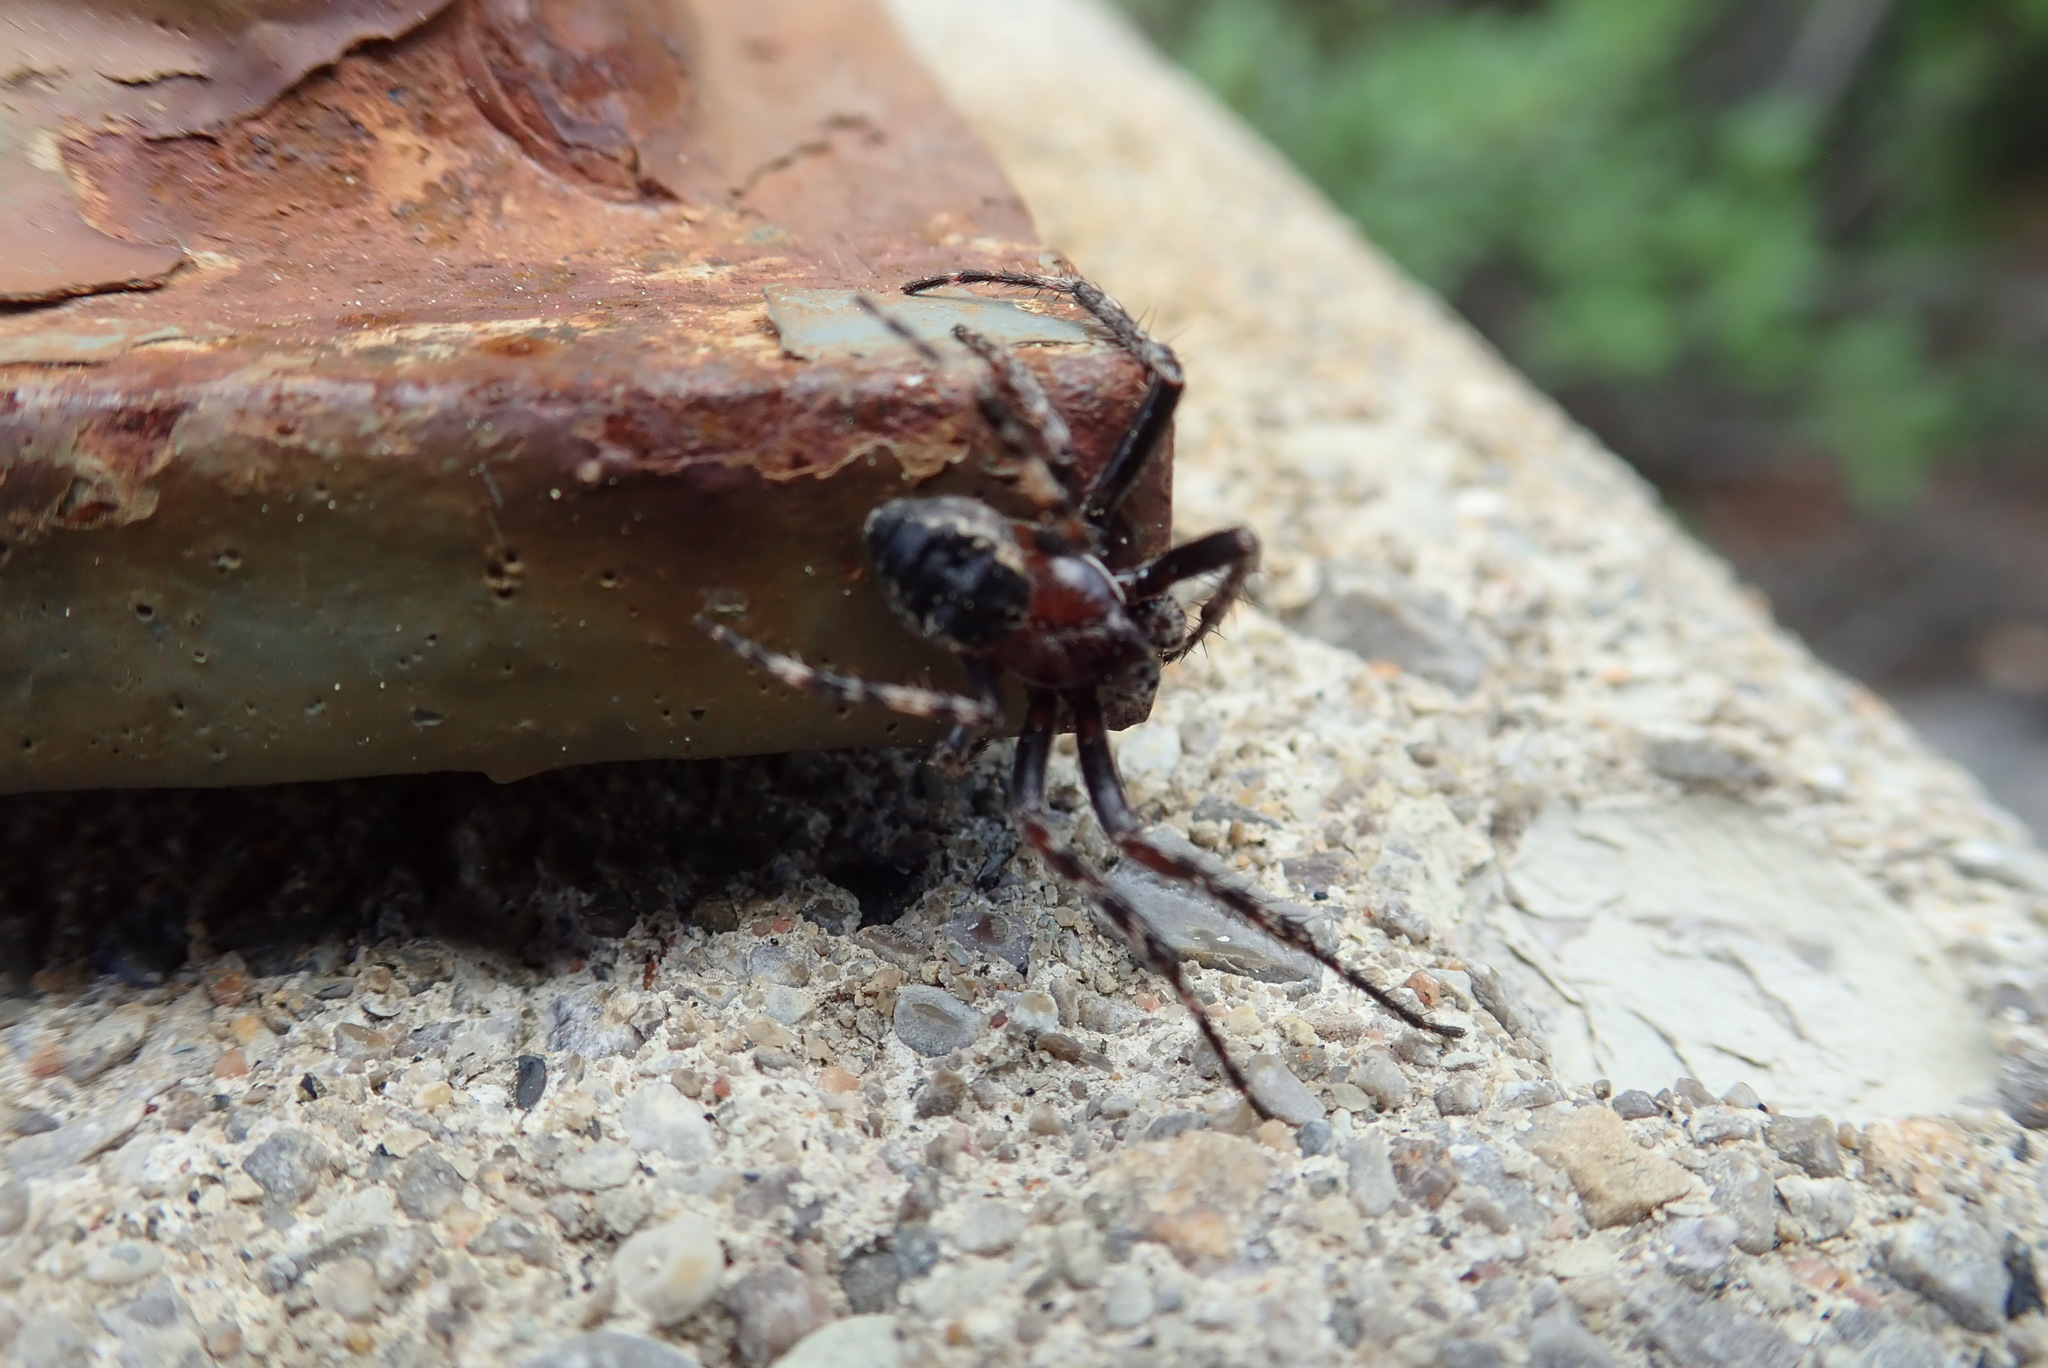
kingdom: Animalia
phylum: Arthropoda
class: Arachnida
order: Araneae
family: Araneidae
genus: Larinioides
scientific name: Larinioides patagiatus
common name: Ornamental orbweaver
